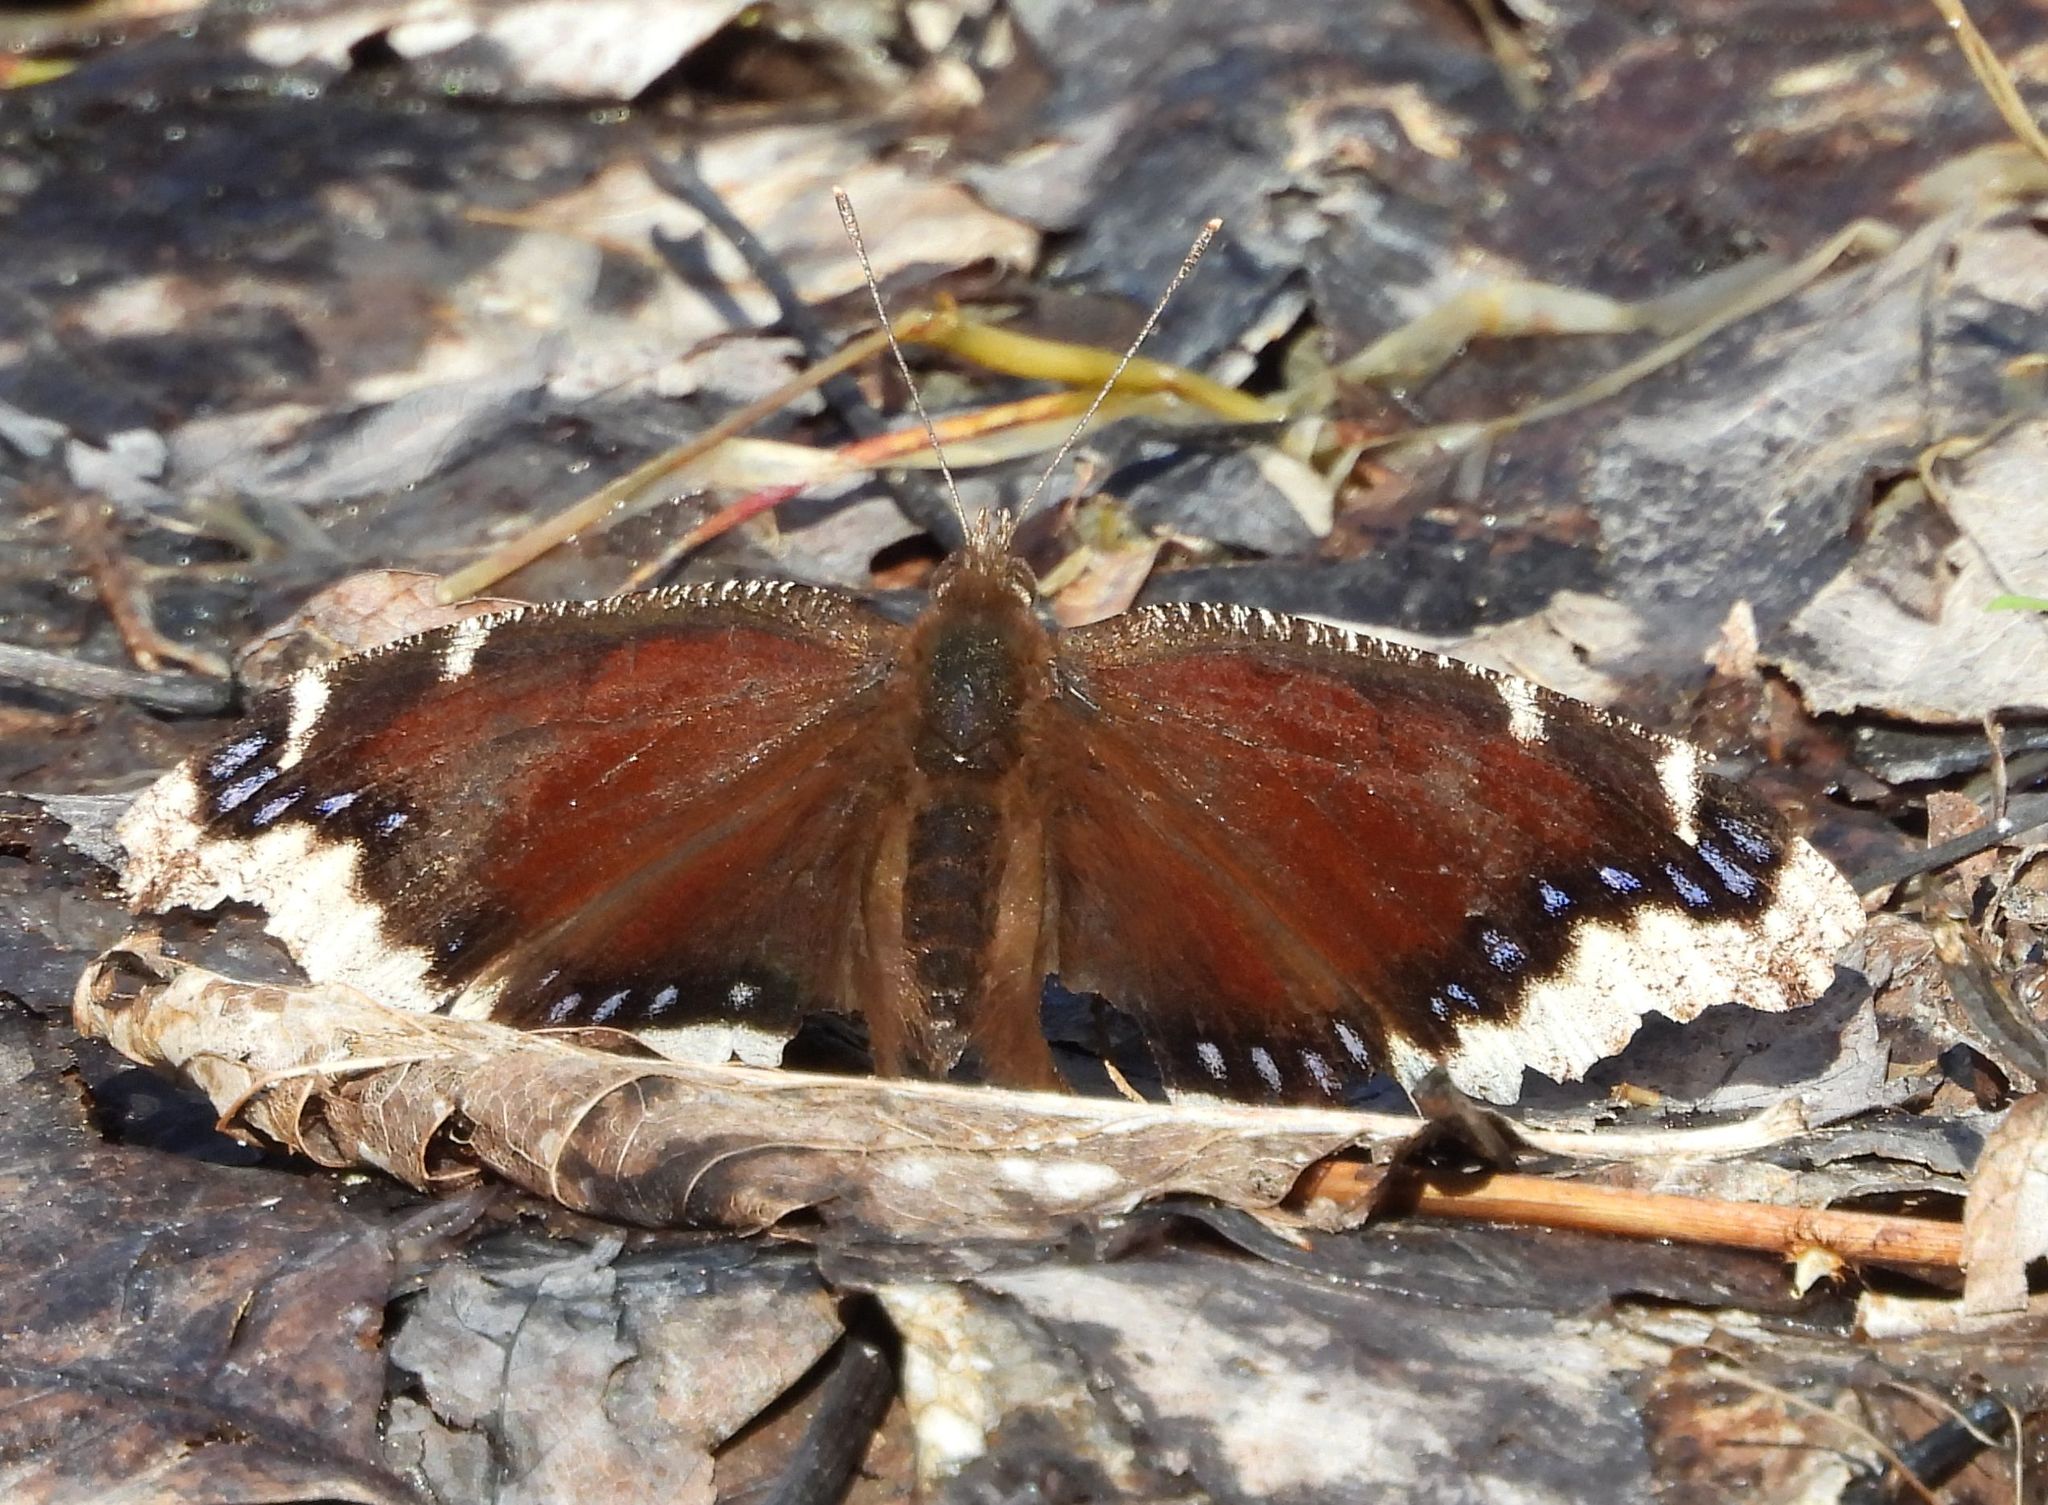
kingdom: Animalia
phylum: Arthropoda
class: Insecta
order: Lepidoptera
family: Nymphalidae
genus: Nymphalis
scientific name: Nymphalis antiopa
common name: Camberwell beauty
